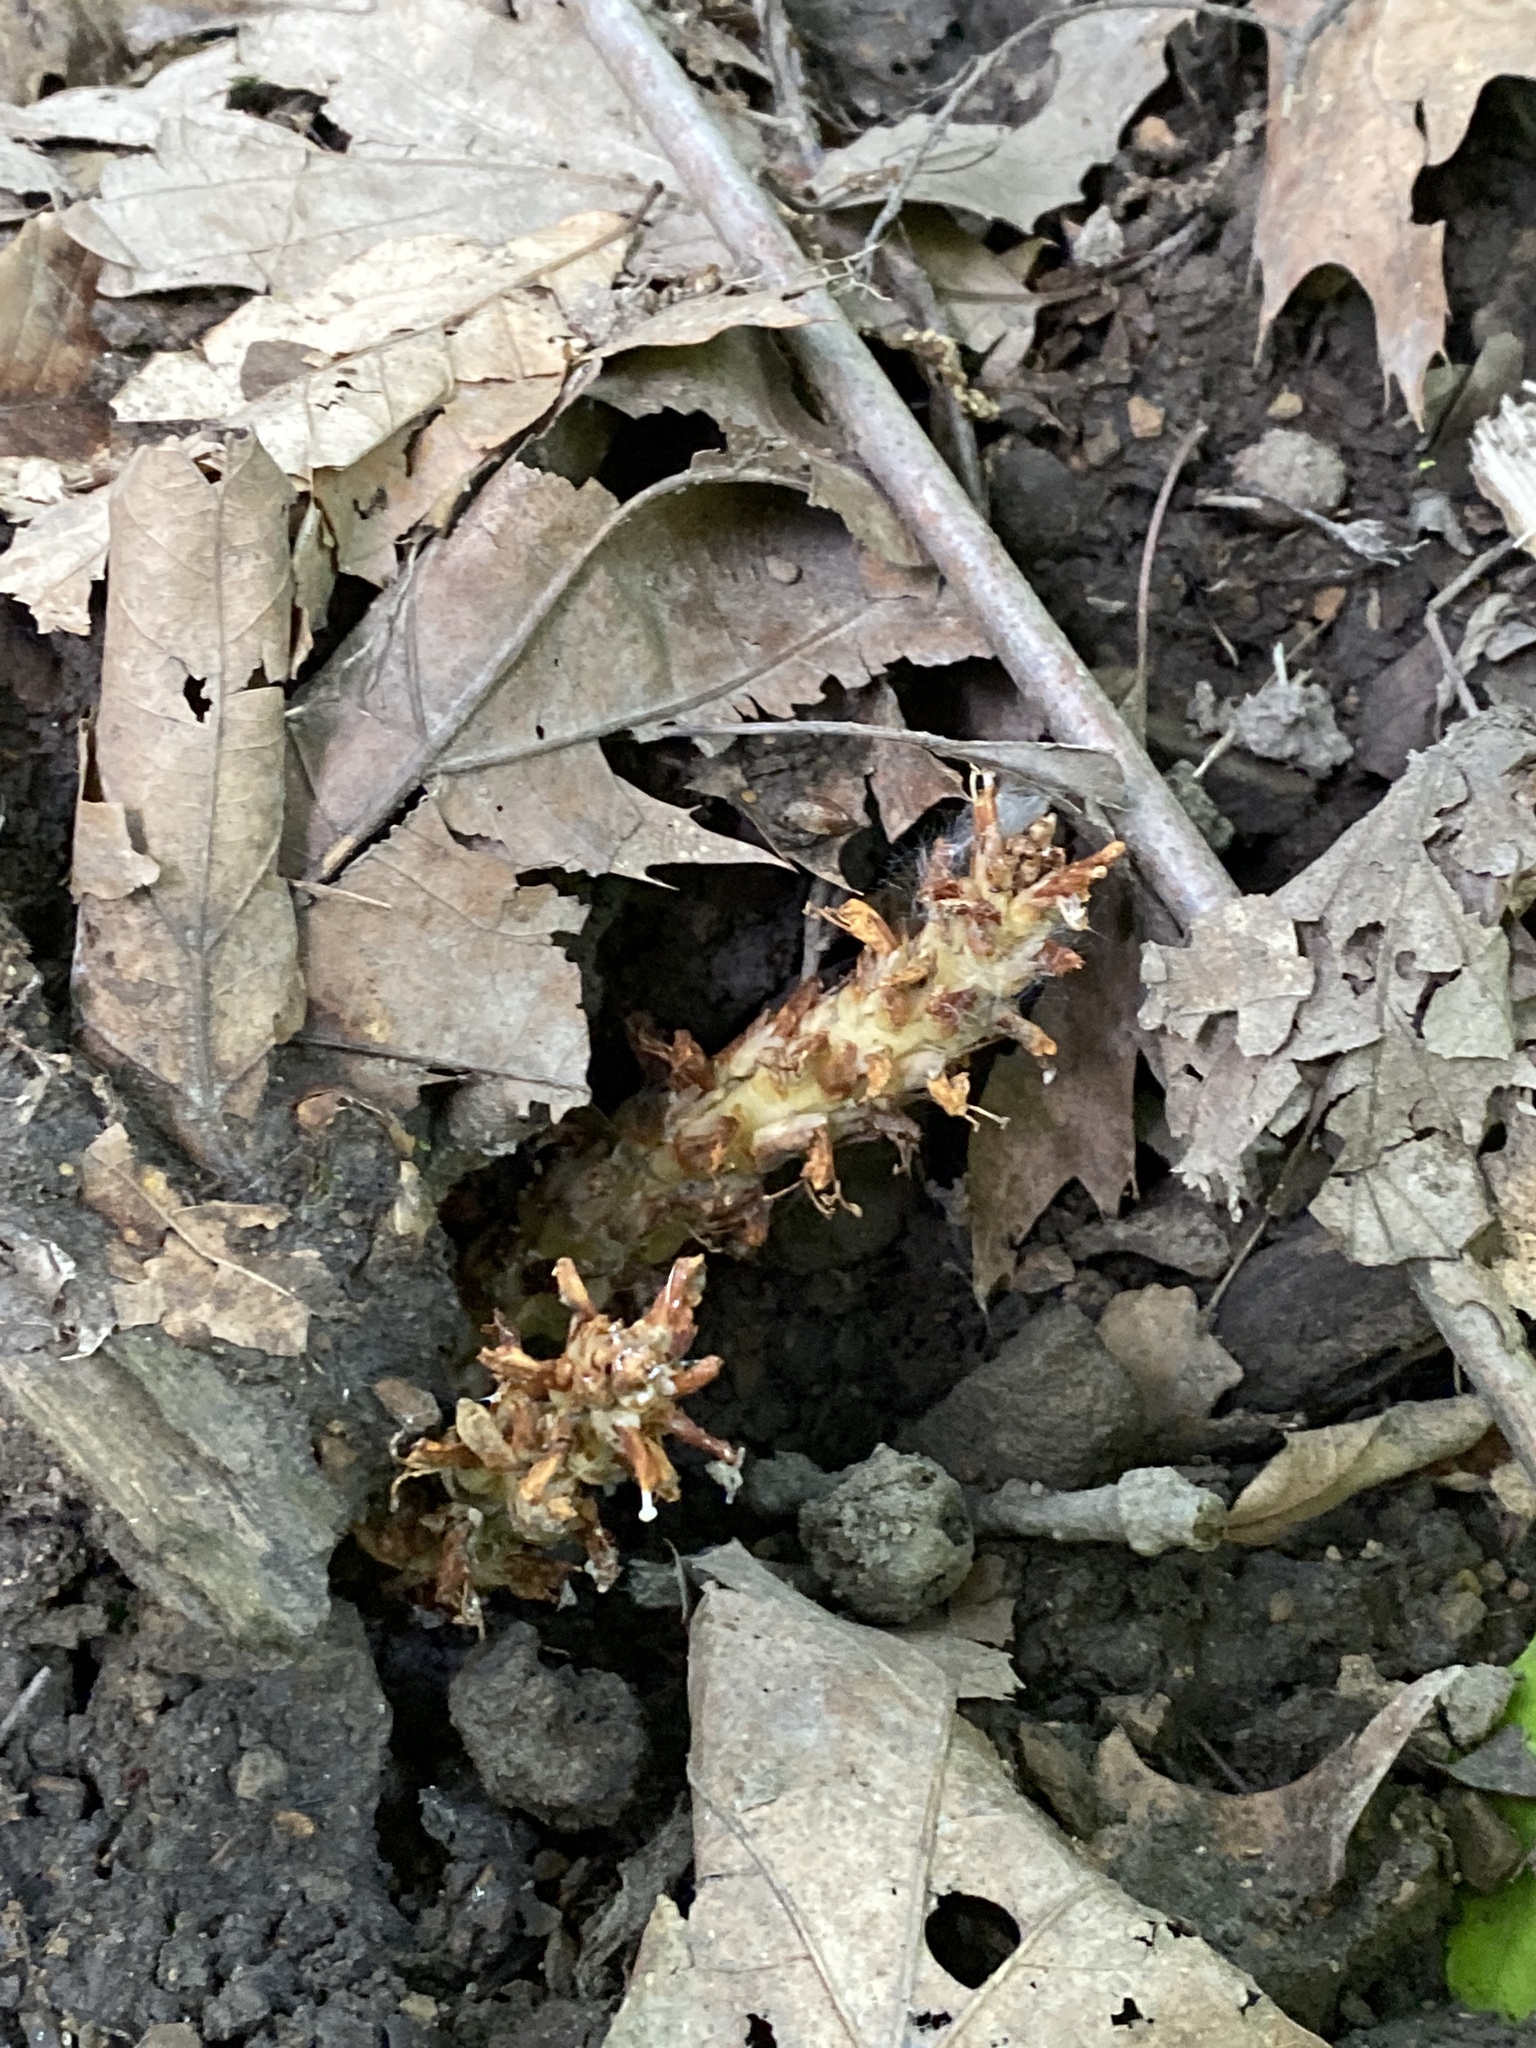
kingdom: Plantae
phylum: Tracheophyta
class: Magnoliopsida
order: Lamiales
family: Orobanchaceae
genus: Conopholis
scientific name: Conopholis americana
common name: American cancer-root
